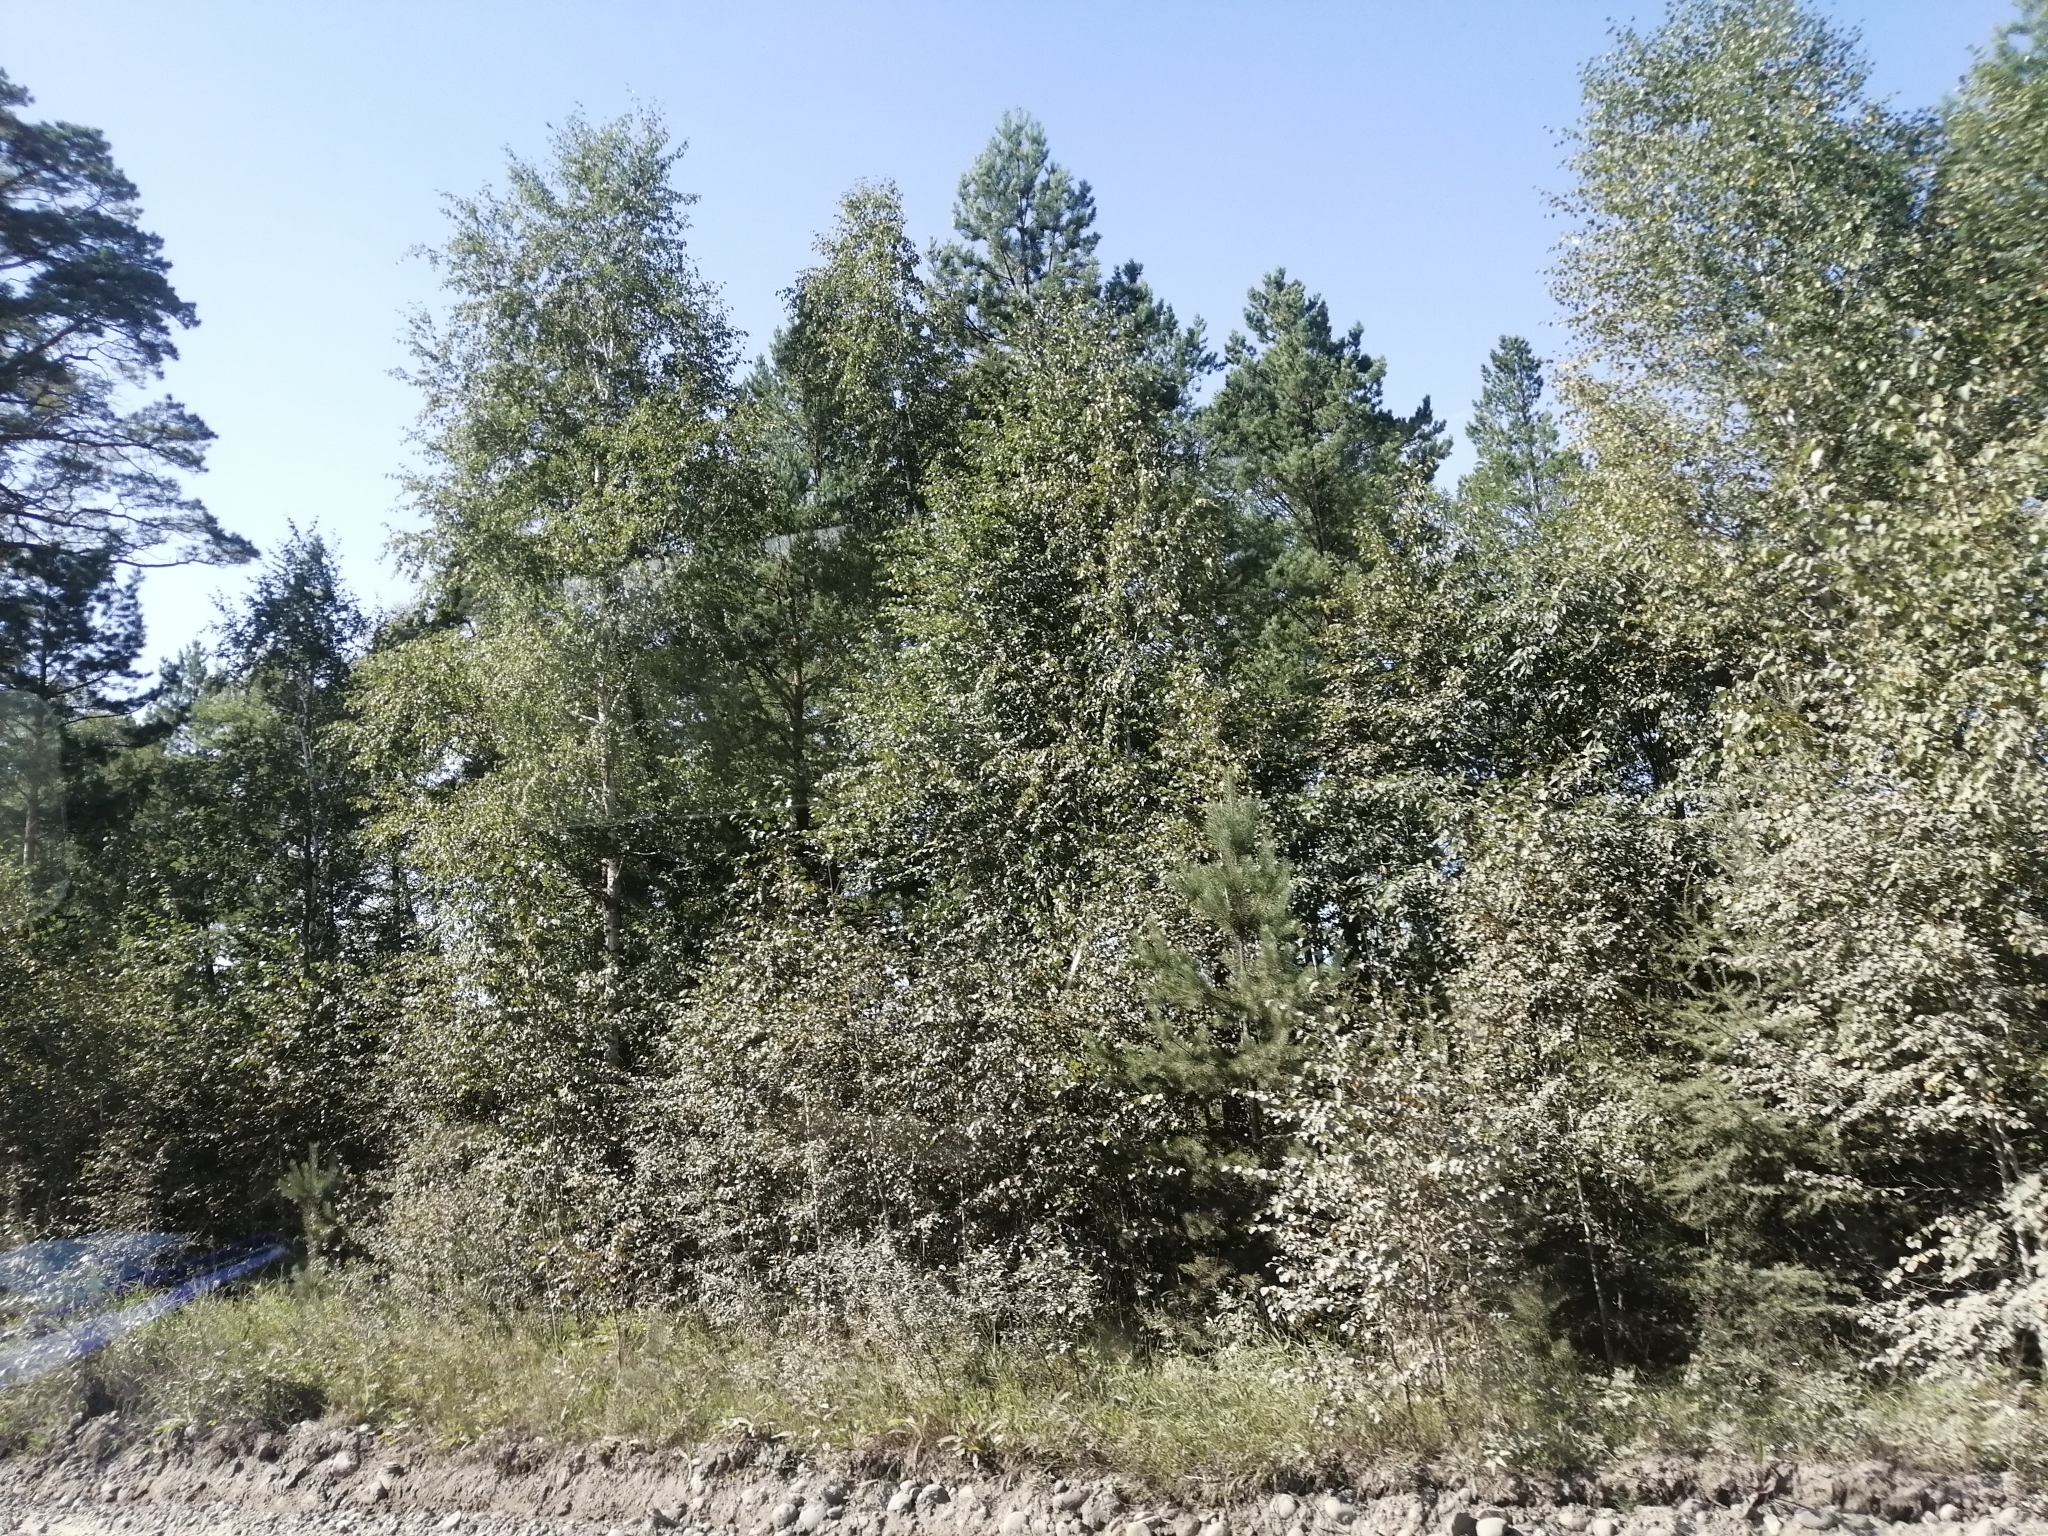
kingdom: Plantae
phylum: Tracheophyta
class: Pinopsida
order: Pinales
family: Pinaceae
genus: Pinus
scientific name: Pinus sylvestris
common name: Scots pine
